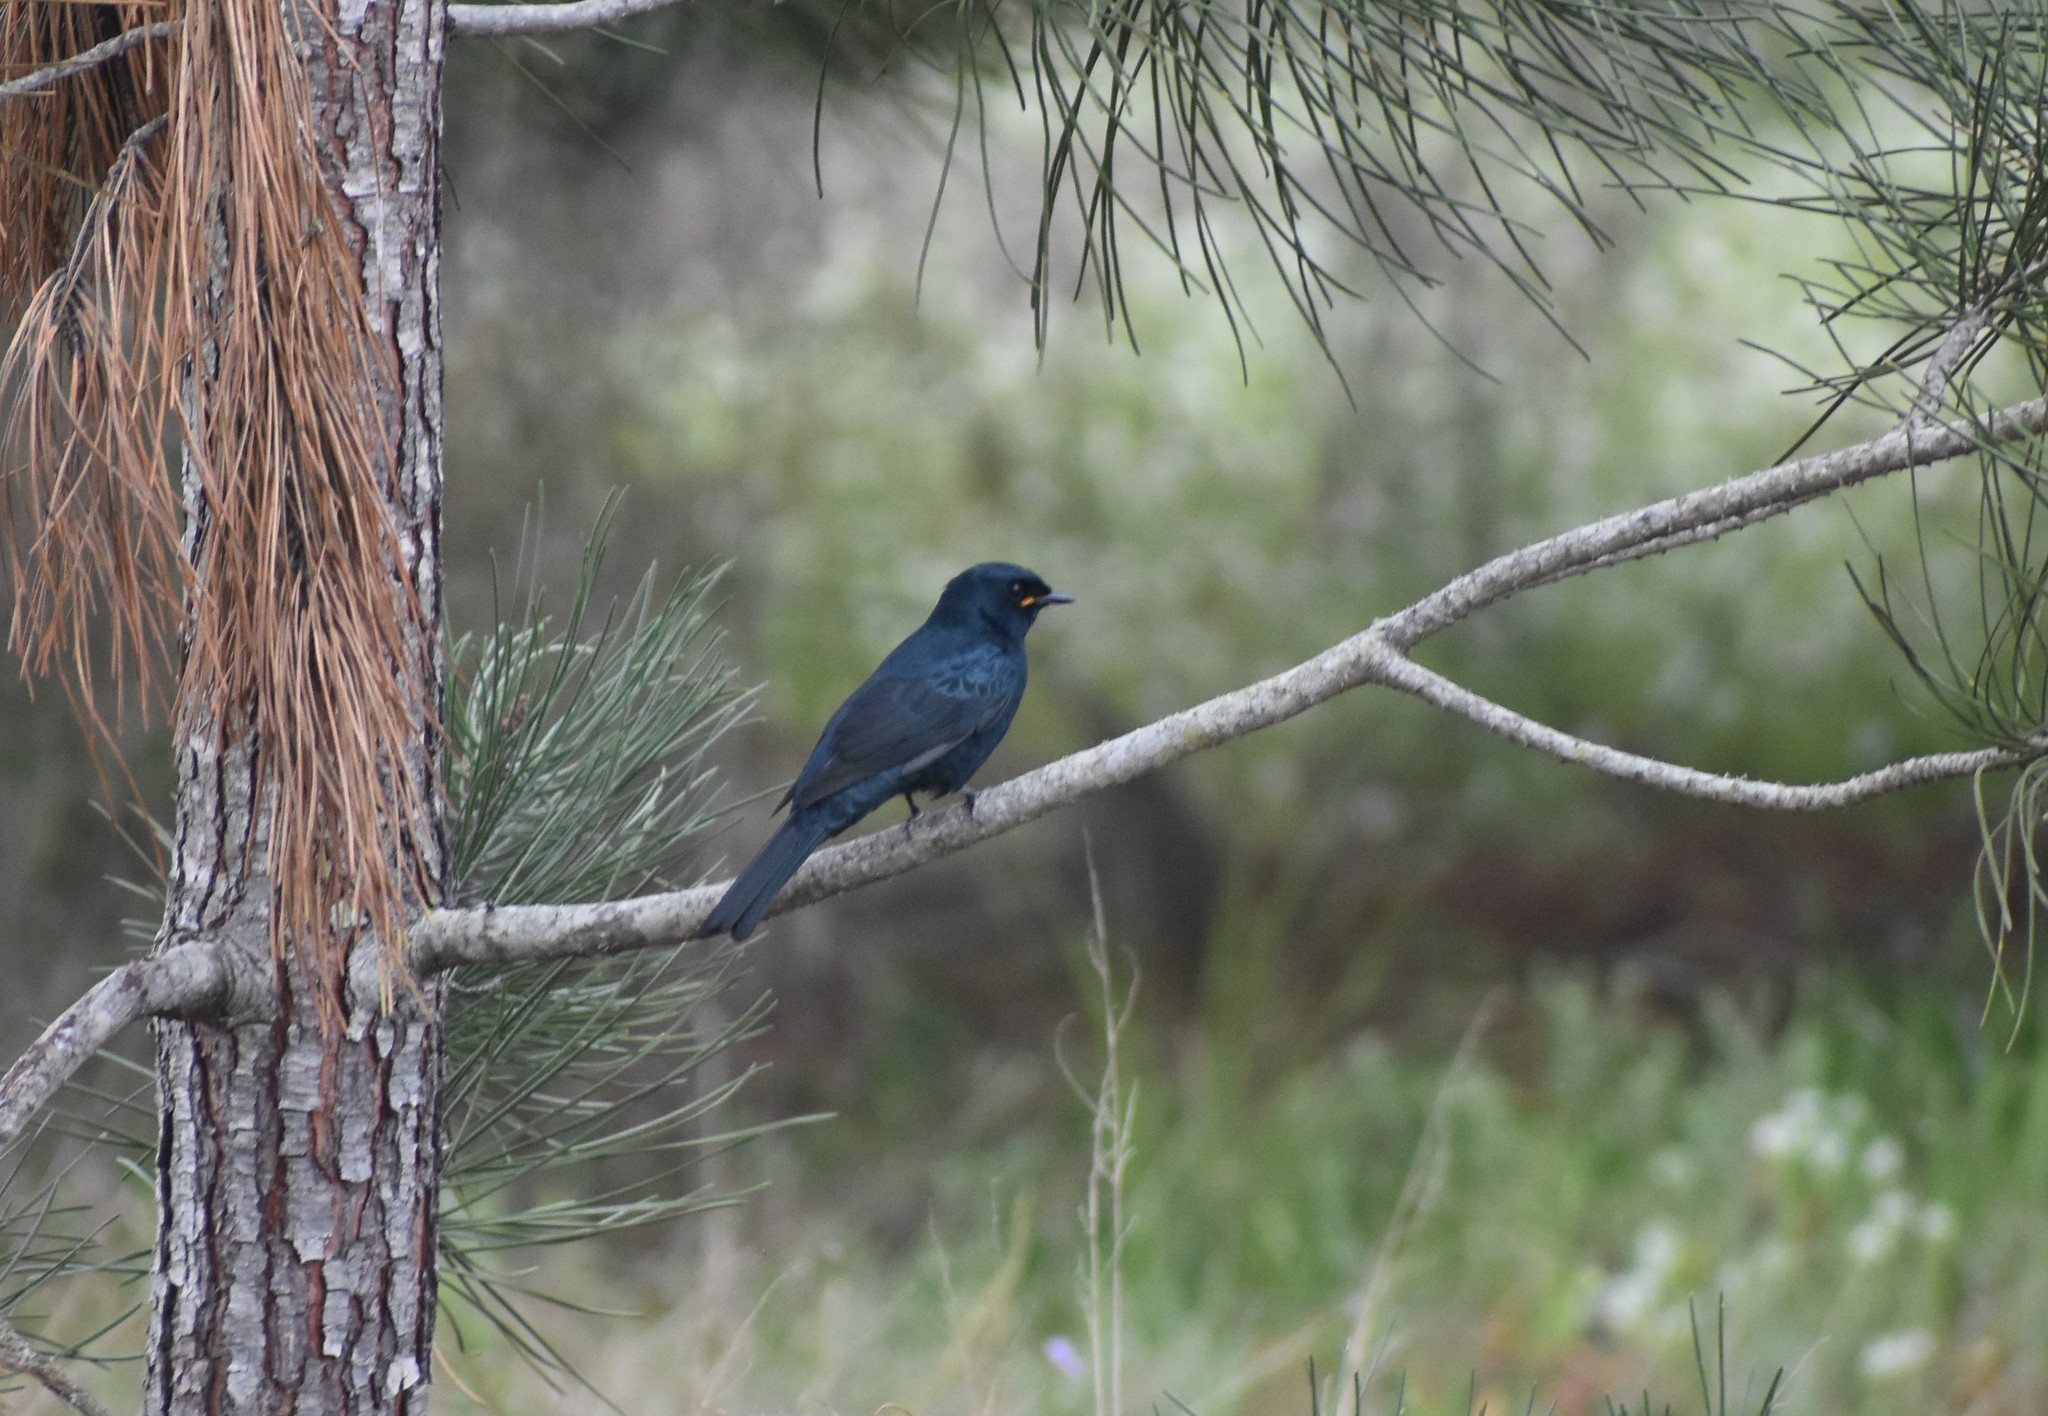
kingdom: Animalia
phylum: Chordata
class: Aves
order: Passeriformes
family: Campephagidae
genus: Campephaga
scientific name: Campephaga flava
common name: Black cuckooshrike
